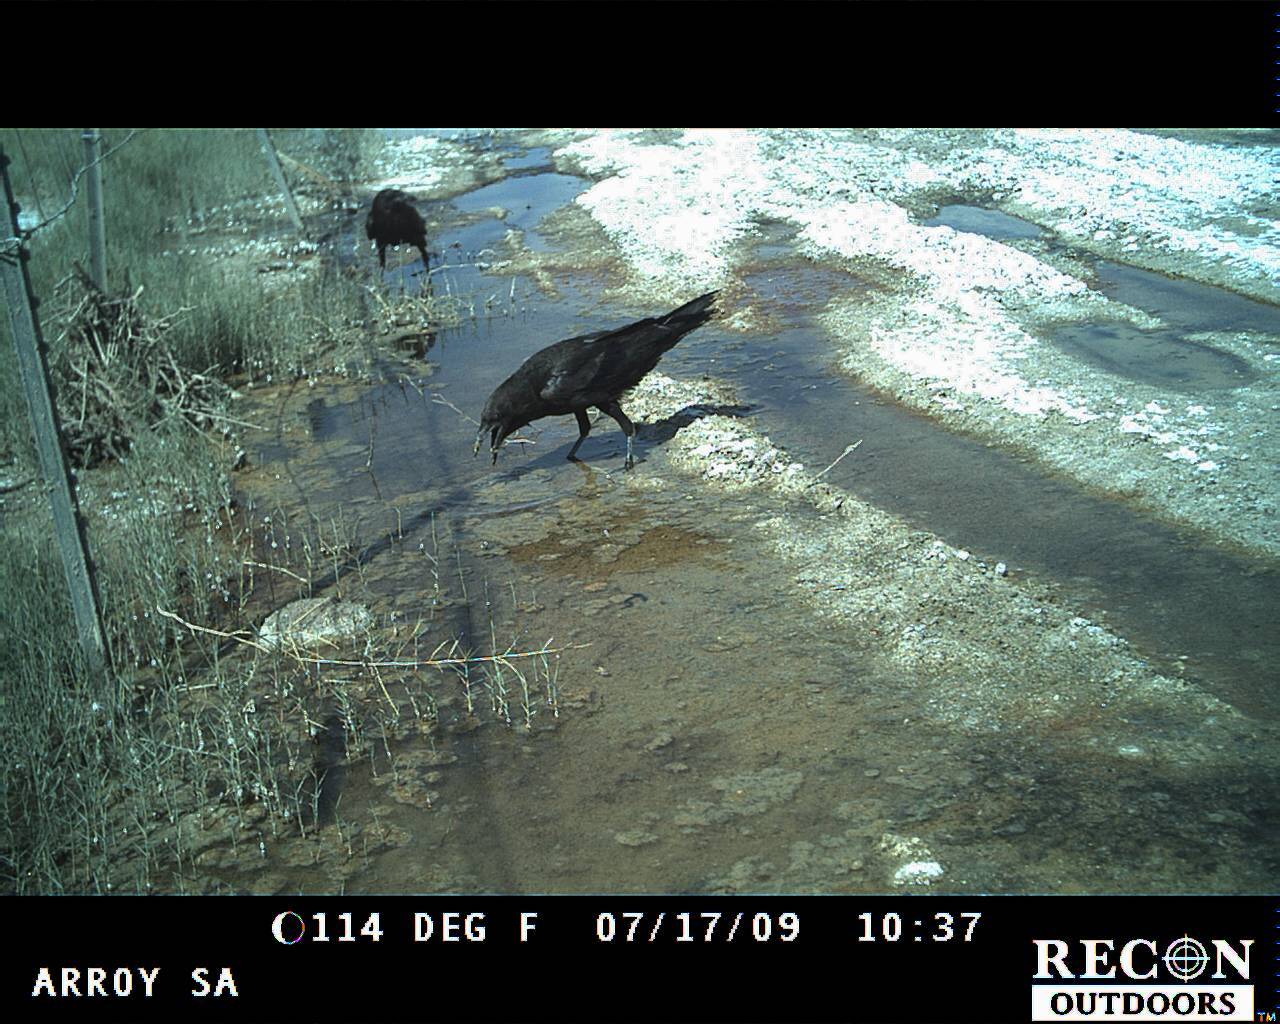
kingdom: Animalia
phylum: Chordata
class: Aves
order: Passeriformes
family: Corvidae
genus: Corvus
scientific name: Corvus corax
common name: Common raven
